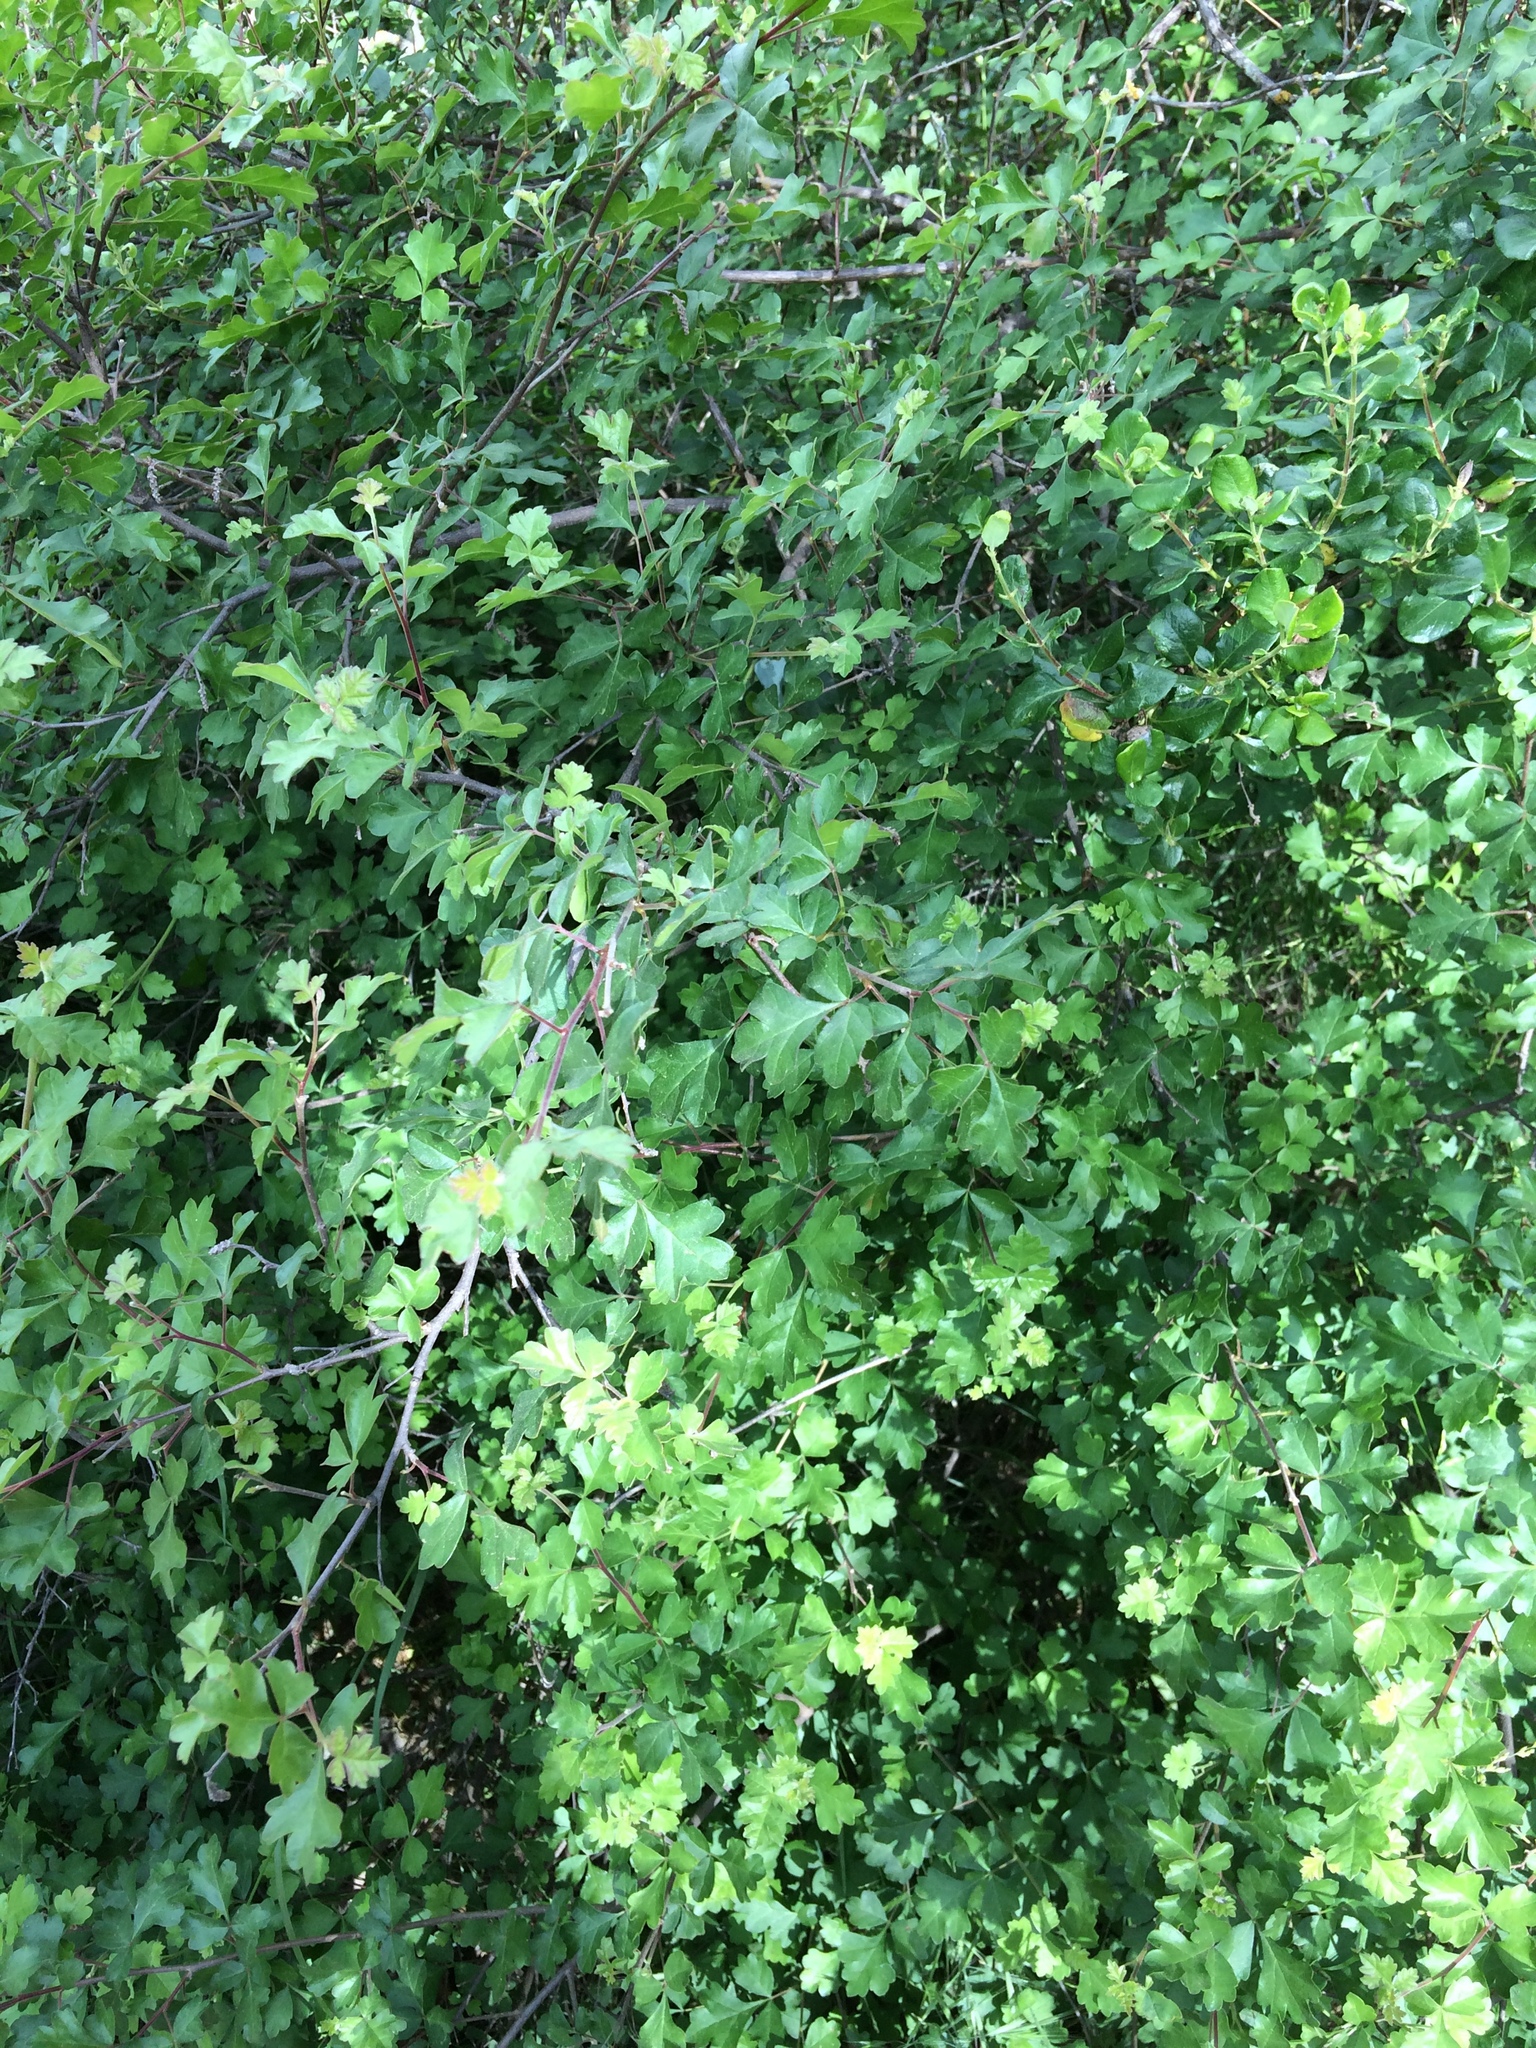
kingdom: Plantae
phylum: Tracheophyta
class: Magnoliopsida
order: Sapindales
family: Anacardiaceae
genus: Rhus
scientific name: Rhus aromatica
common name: Aromatic sumac
